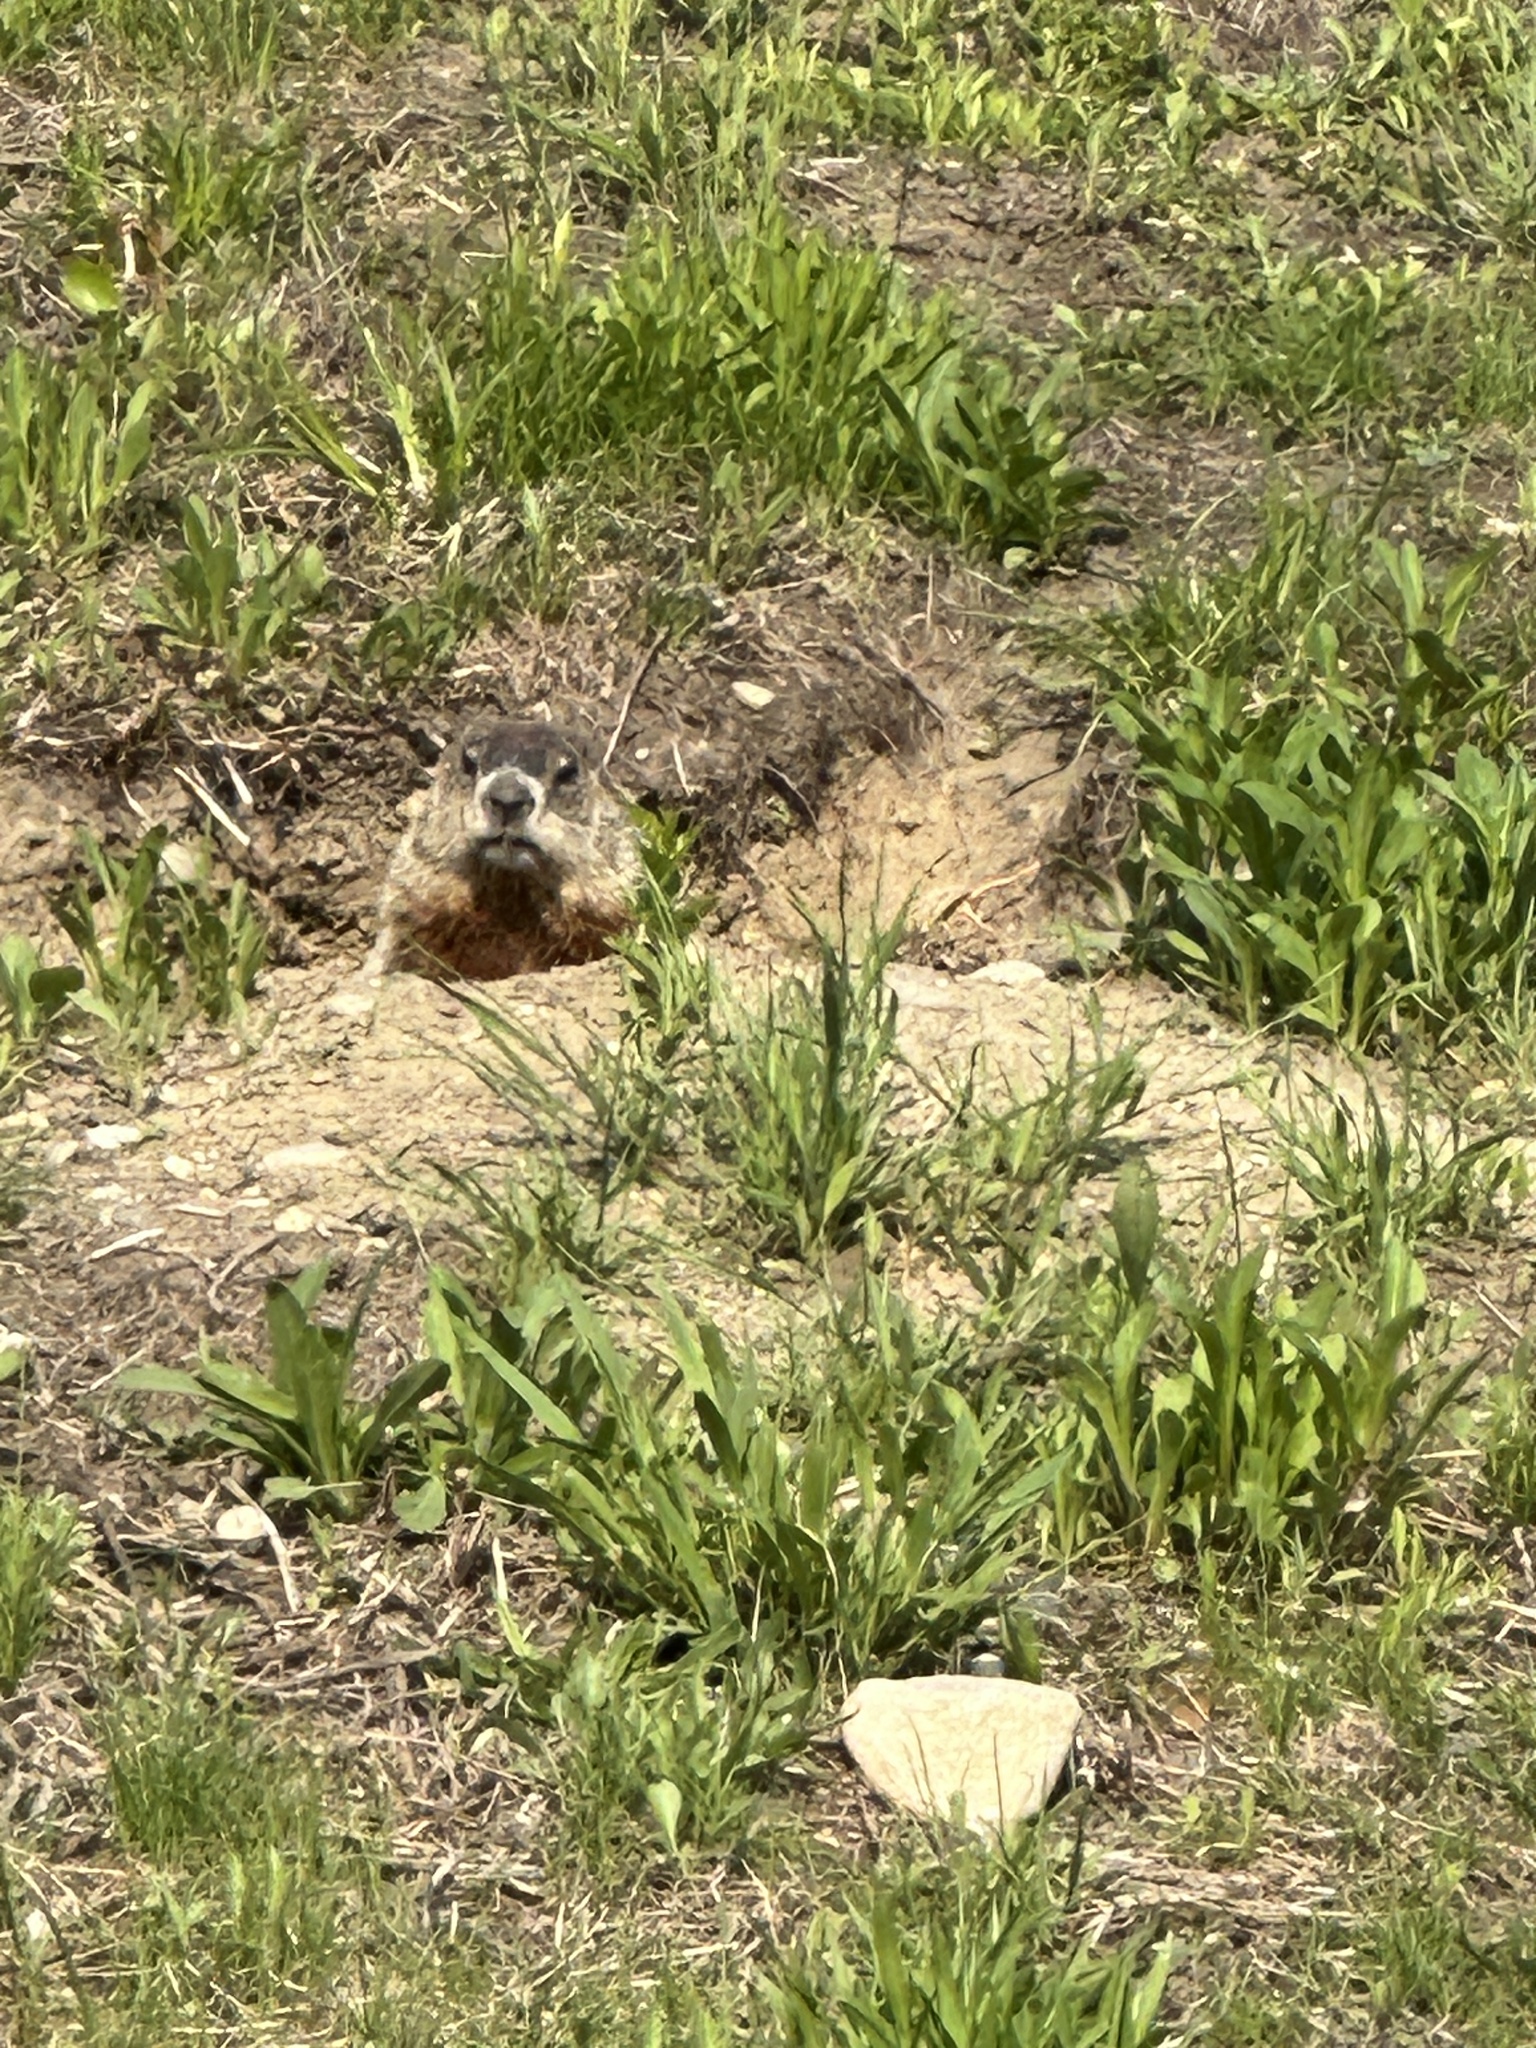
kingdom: Animalia
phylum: Chordata
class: Mammalia
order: Rodentia
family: Sciuridae
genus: Marmota
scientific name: Marmota monax
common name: Groundhog
